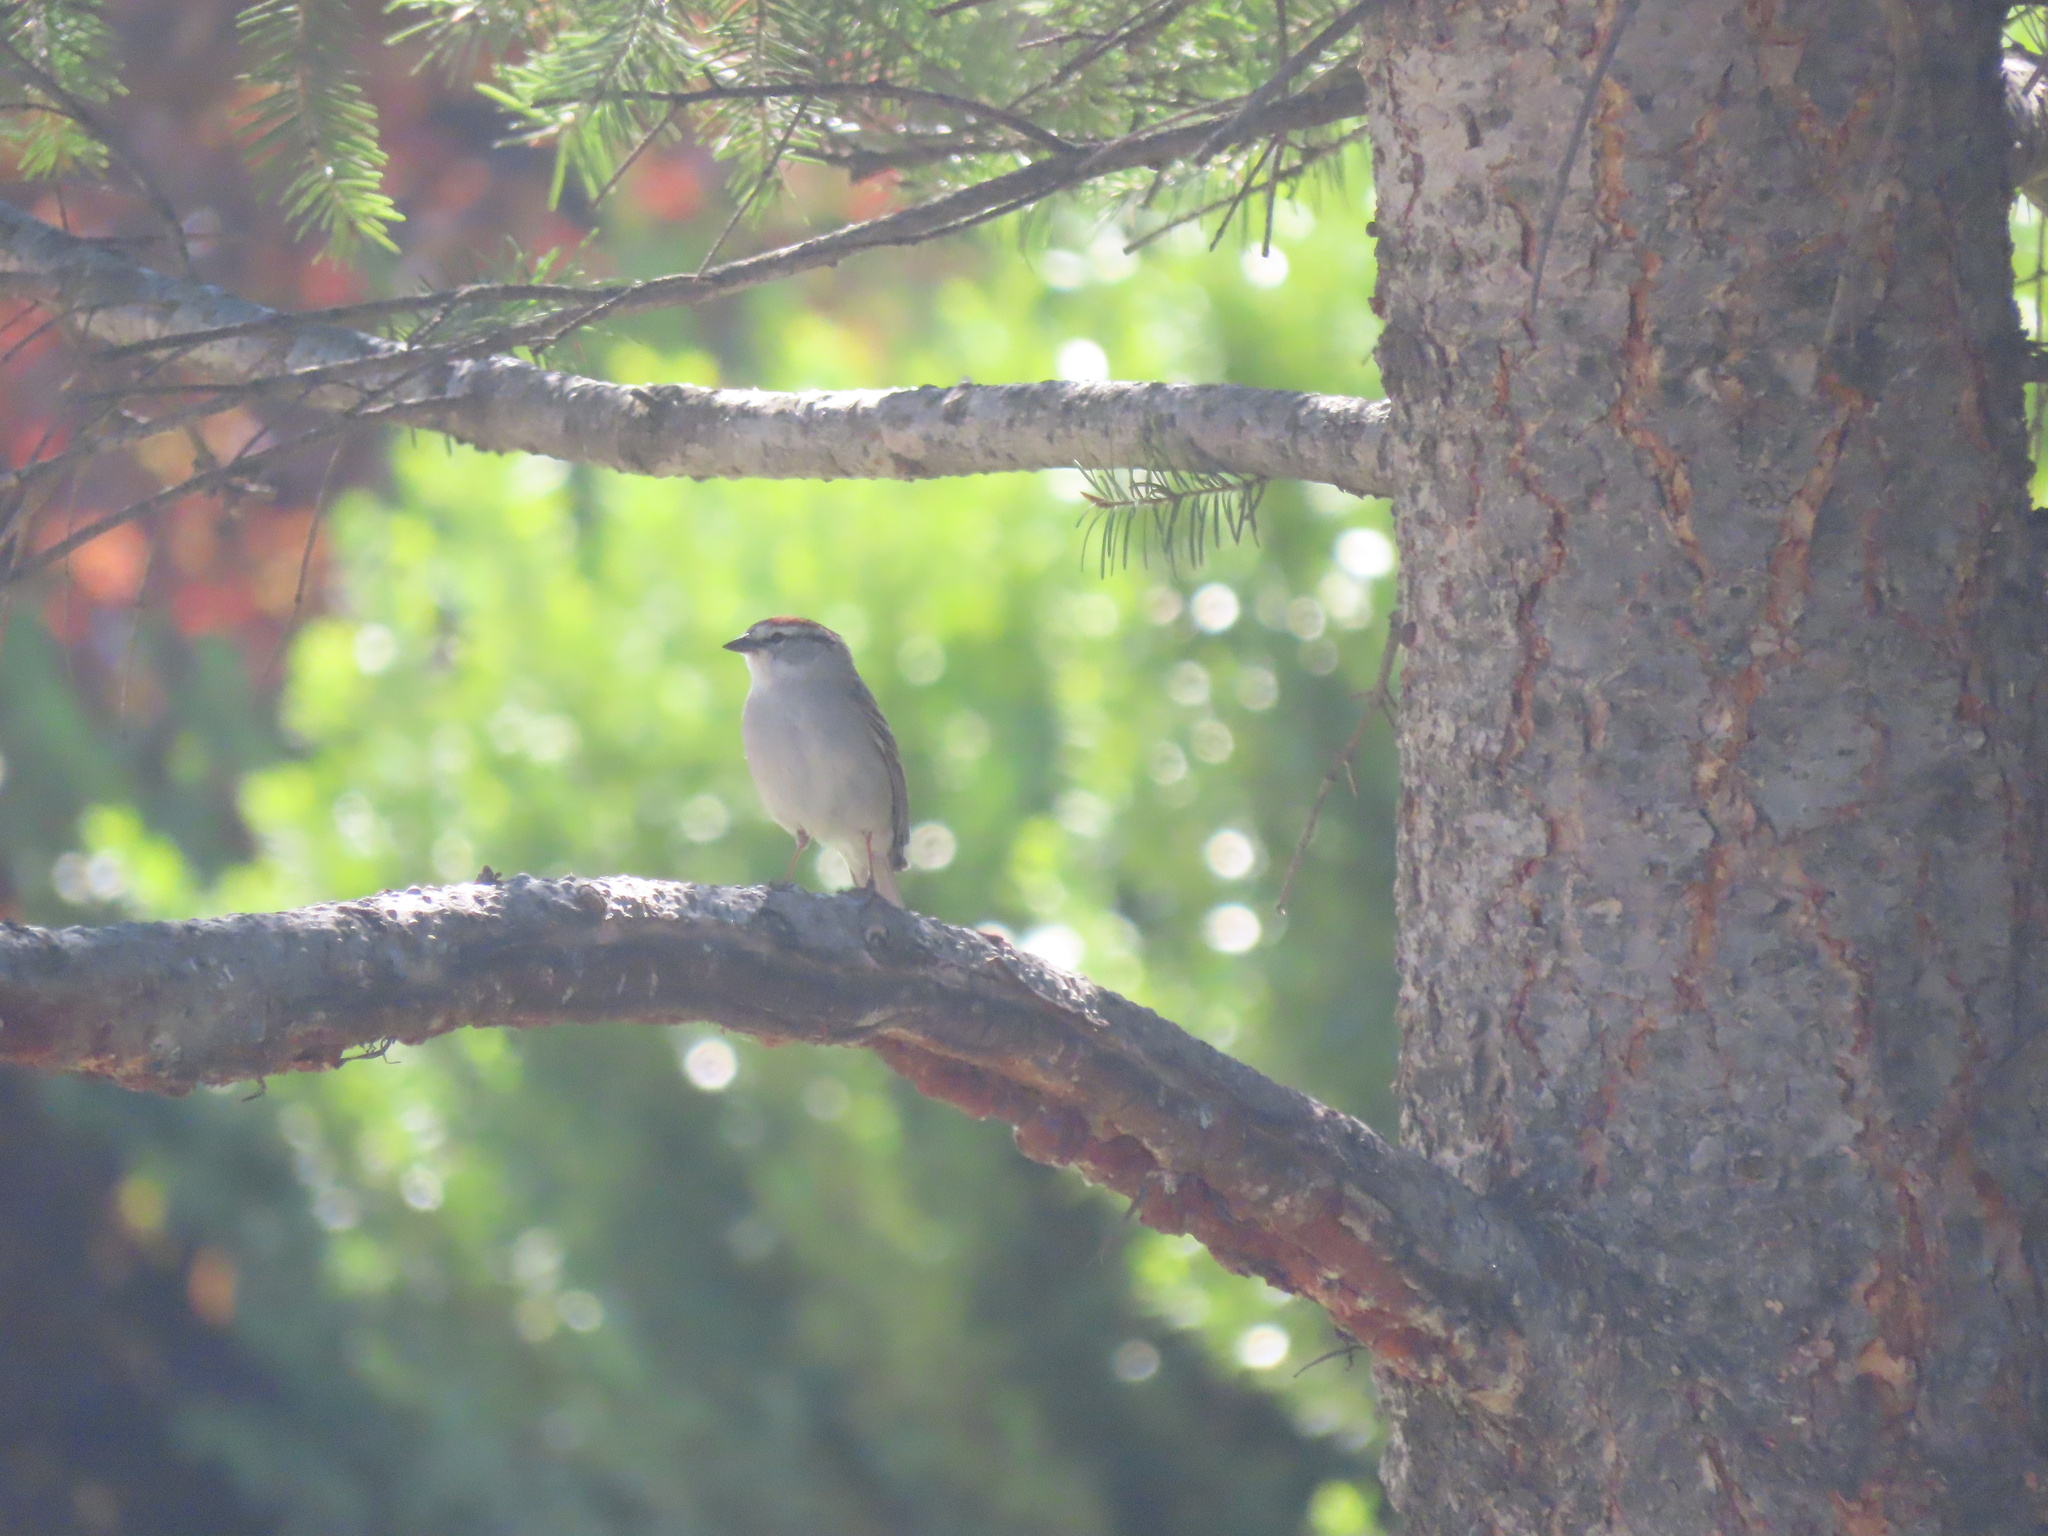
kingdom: Animalia
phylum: Chordata
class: Aves
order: Passeriformes
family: Passerellidae
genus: Spizella
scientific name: Spizella passerina
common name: Chipping sparrow
